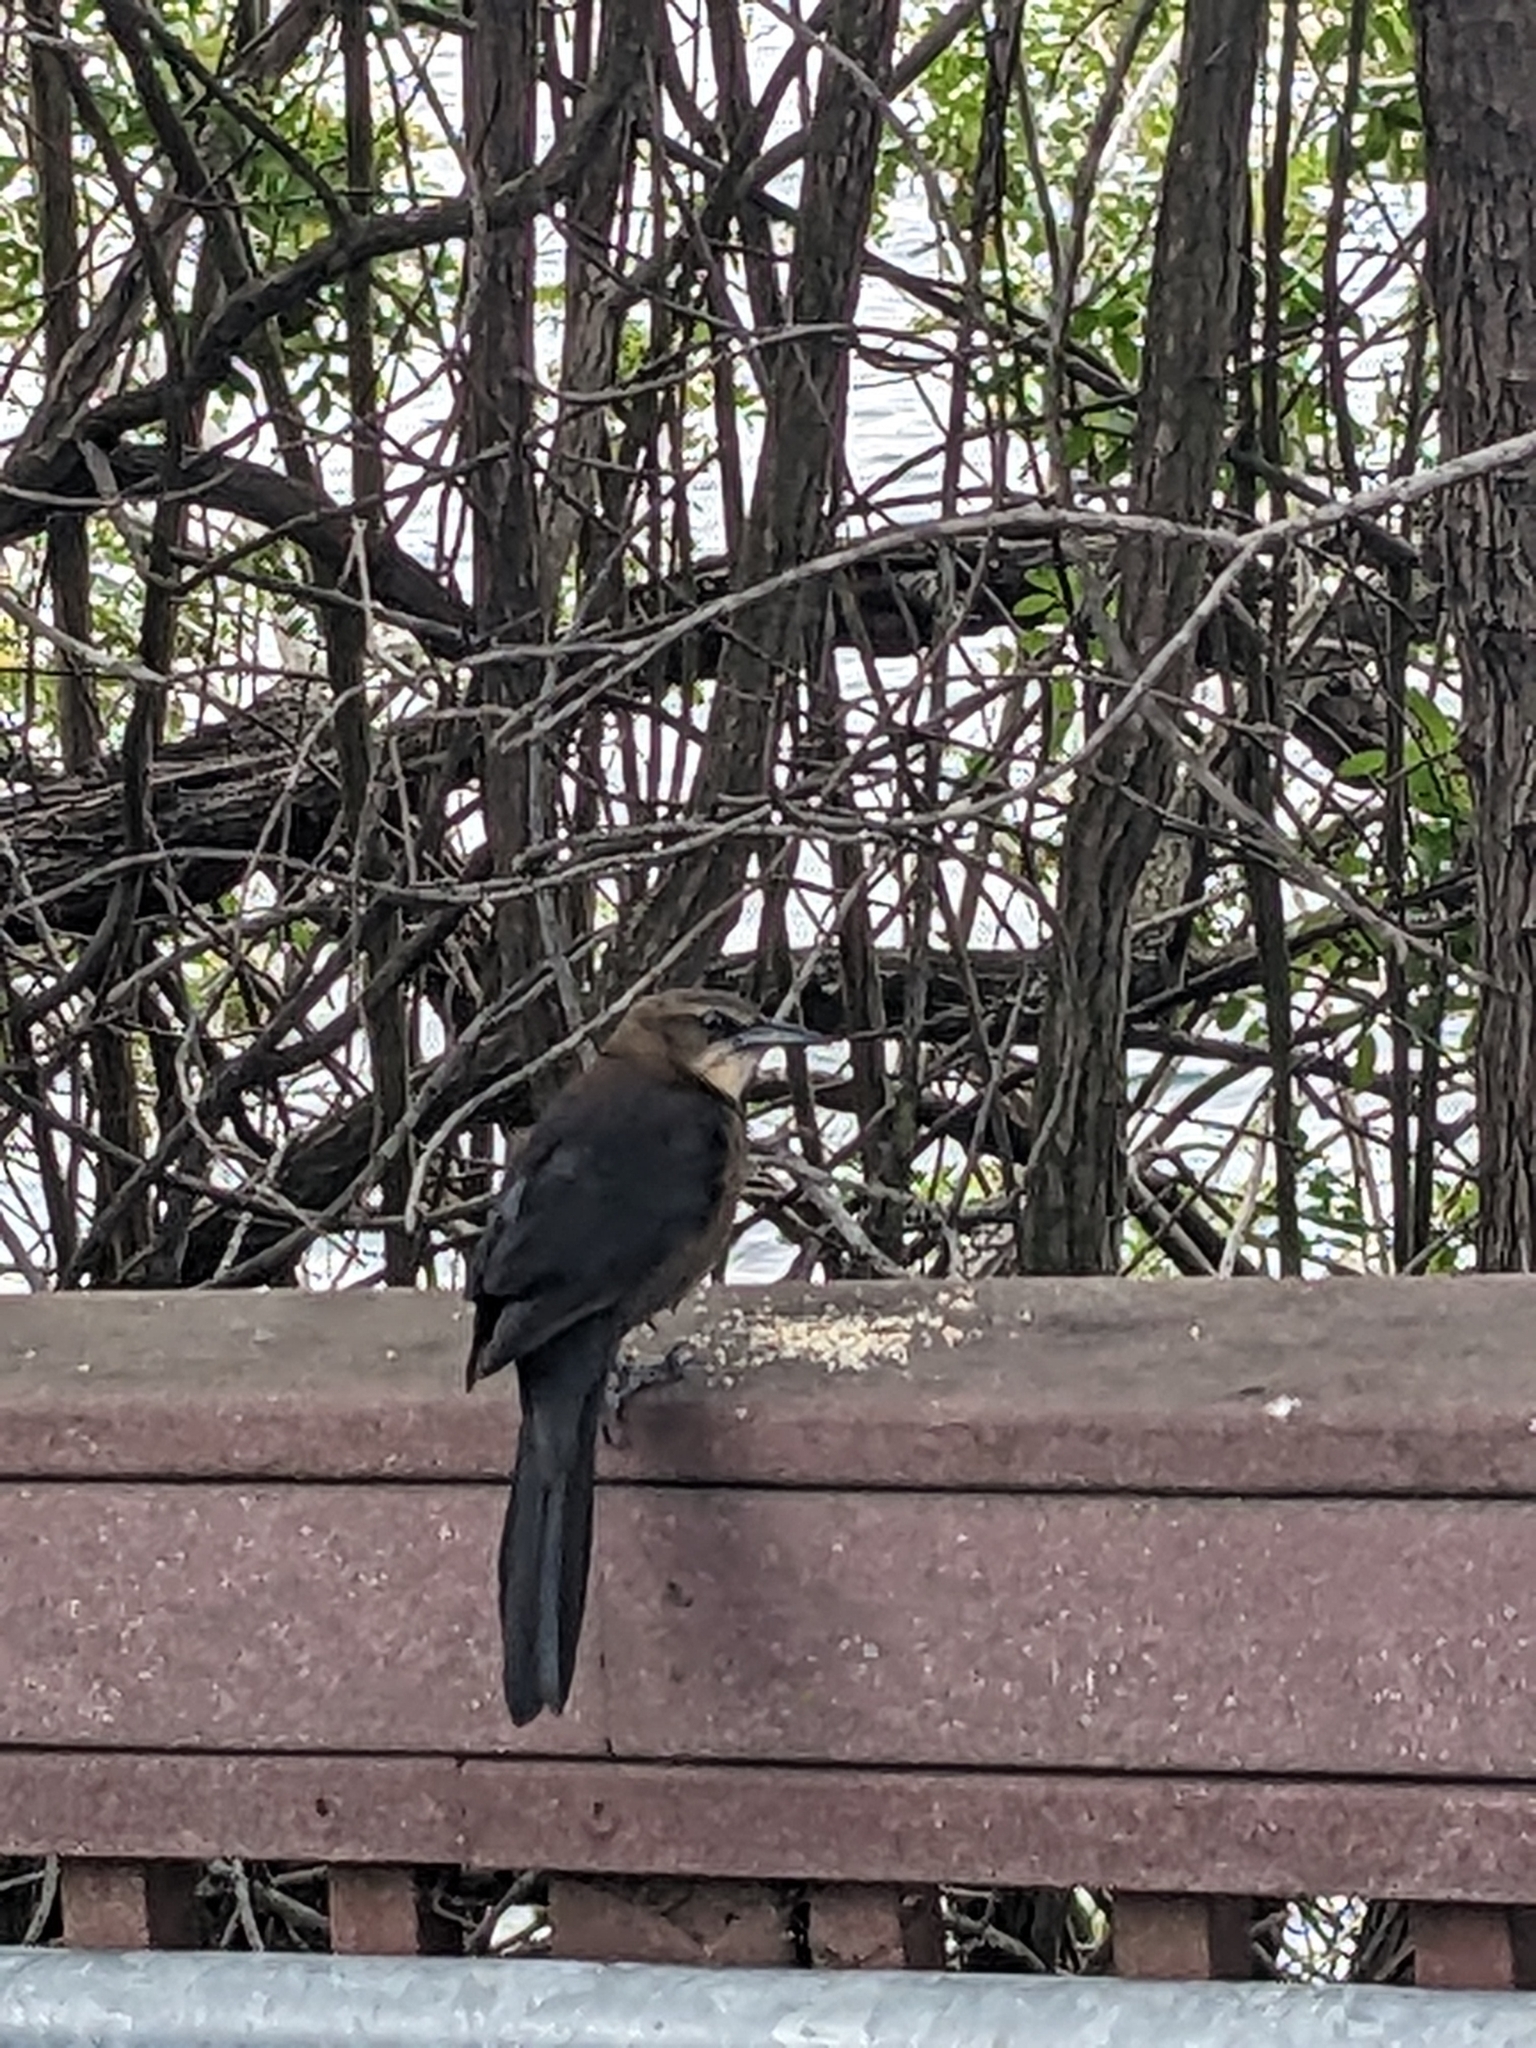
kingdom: Animalia
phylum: Chordata
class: Aves
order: Passeriformes
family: Icteridae
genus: Quiscalus
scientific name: Quiscalus mexicanus
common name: Great-tailed grackle
